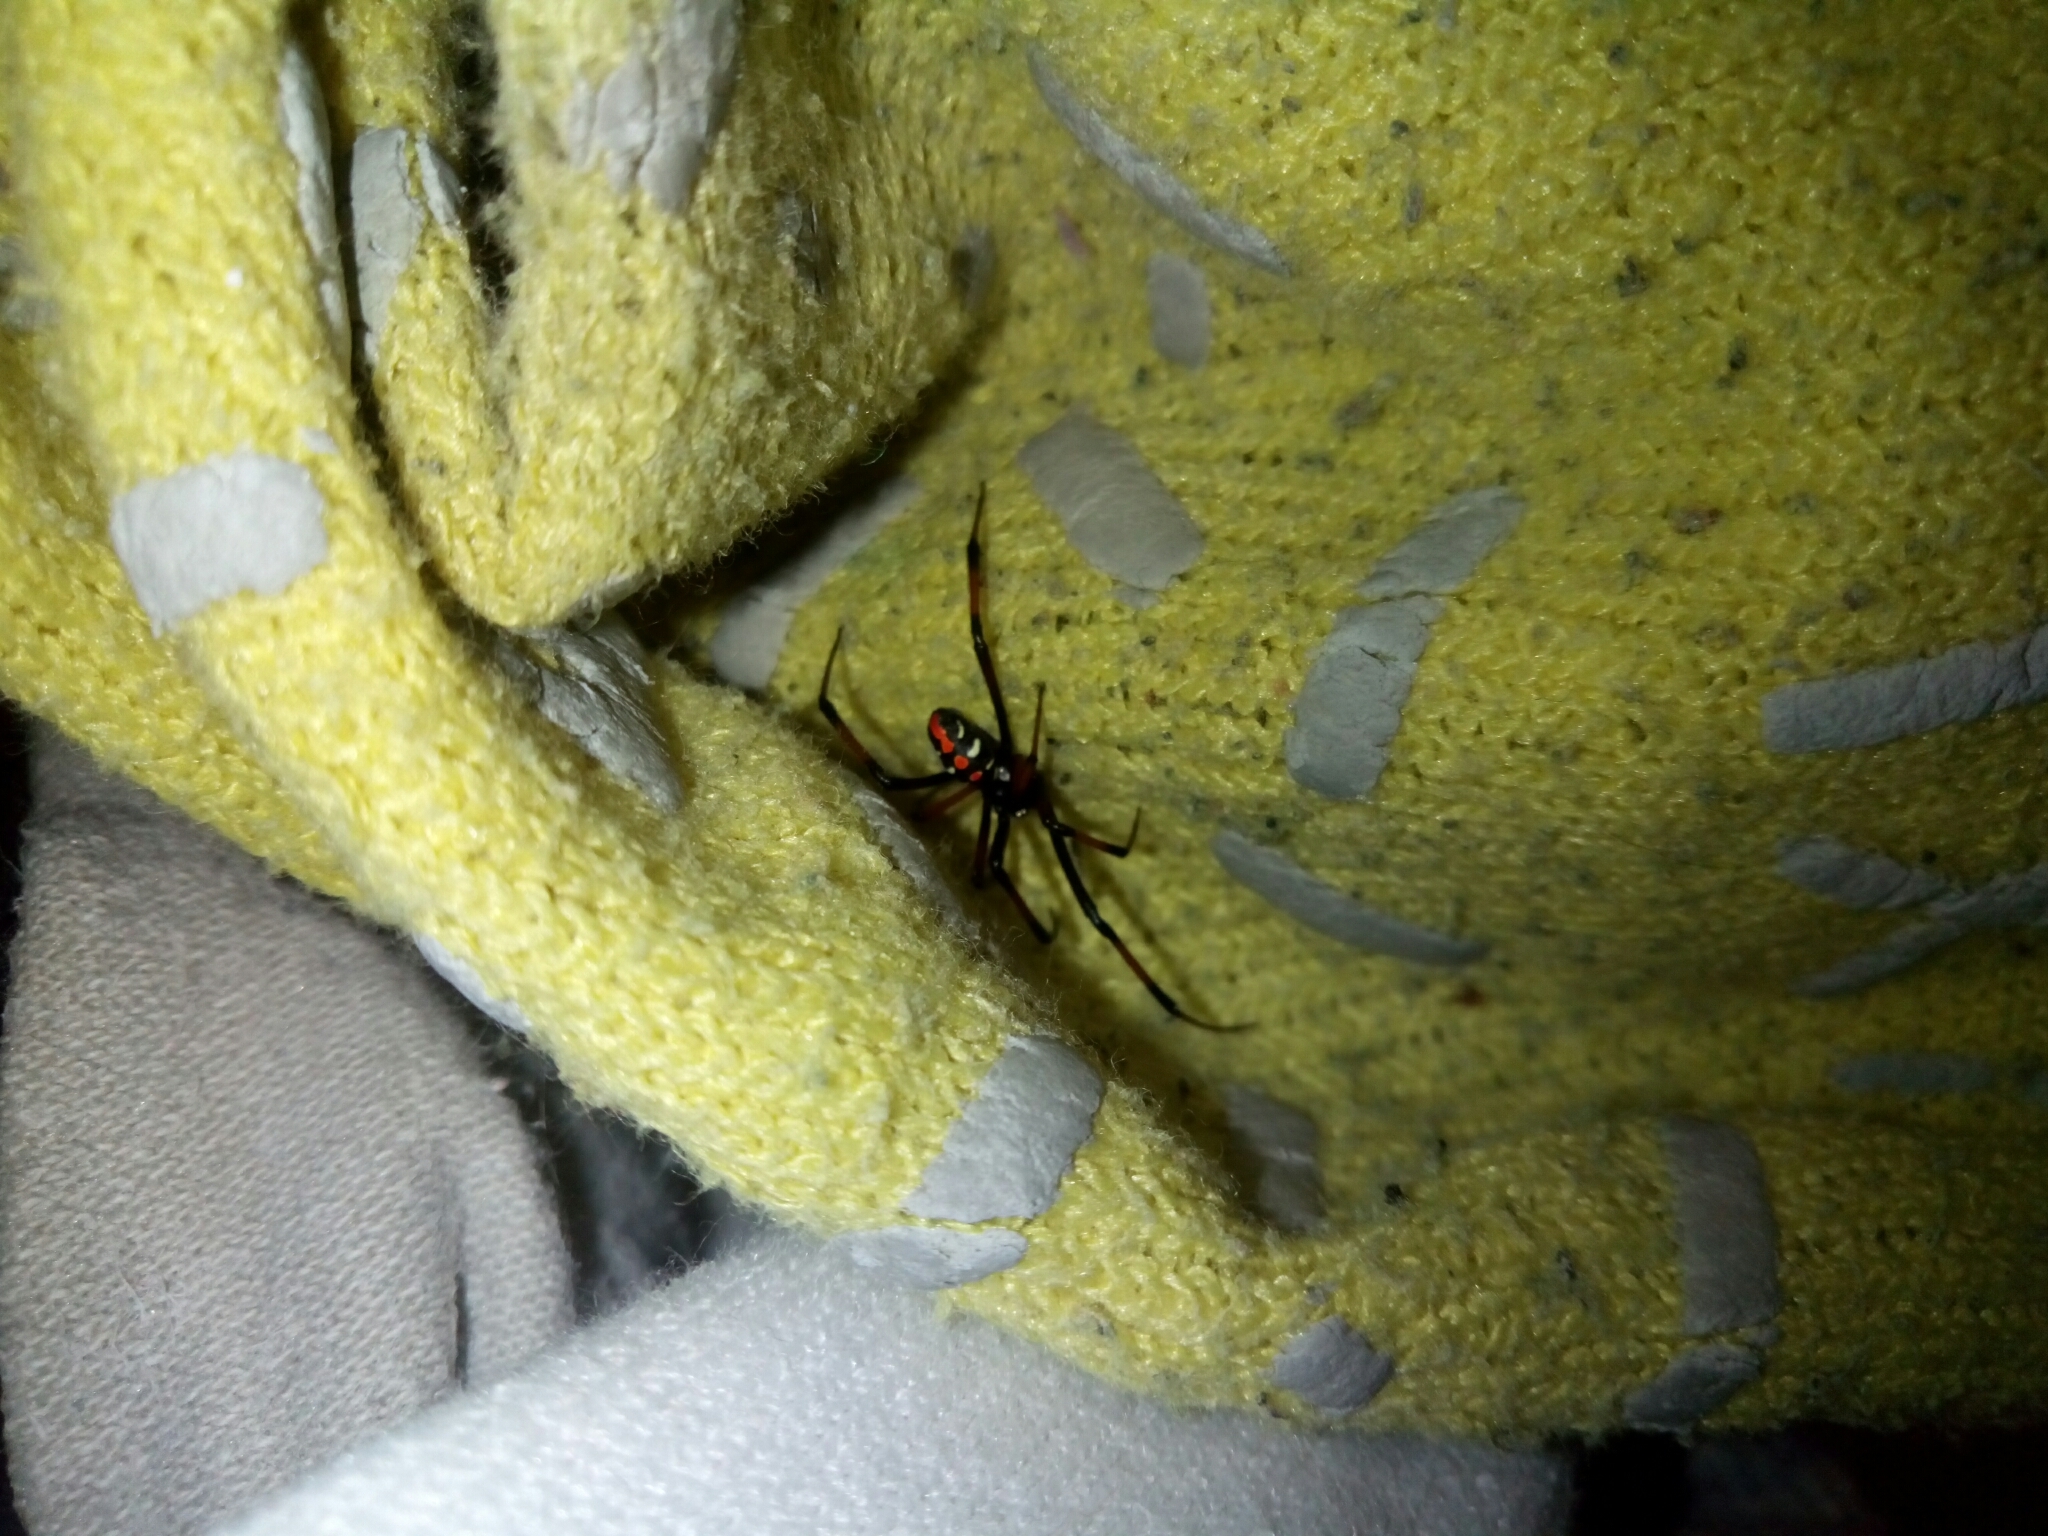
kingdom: Animalia
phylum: Arthropoda
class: Arachnida
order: Araneae
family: Theridiidae
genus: Latrodectus
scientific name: Latrodectus mactans
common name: Cobweb spiders
